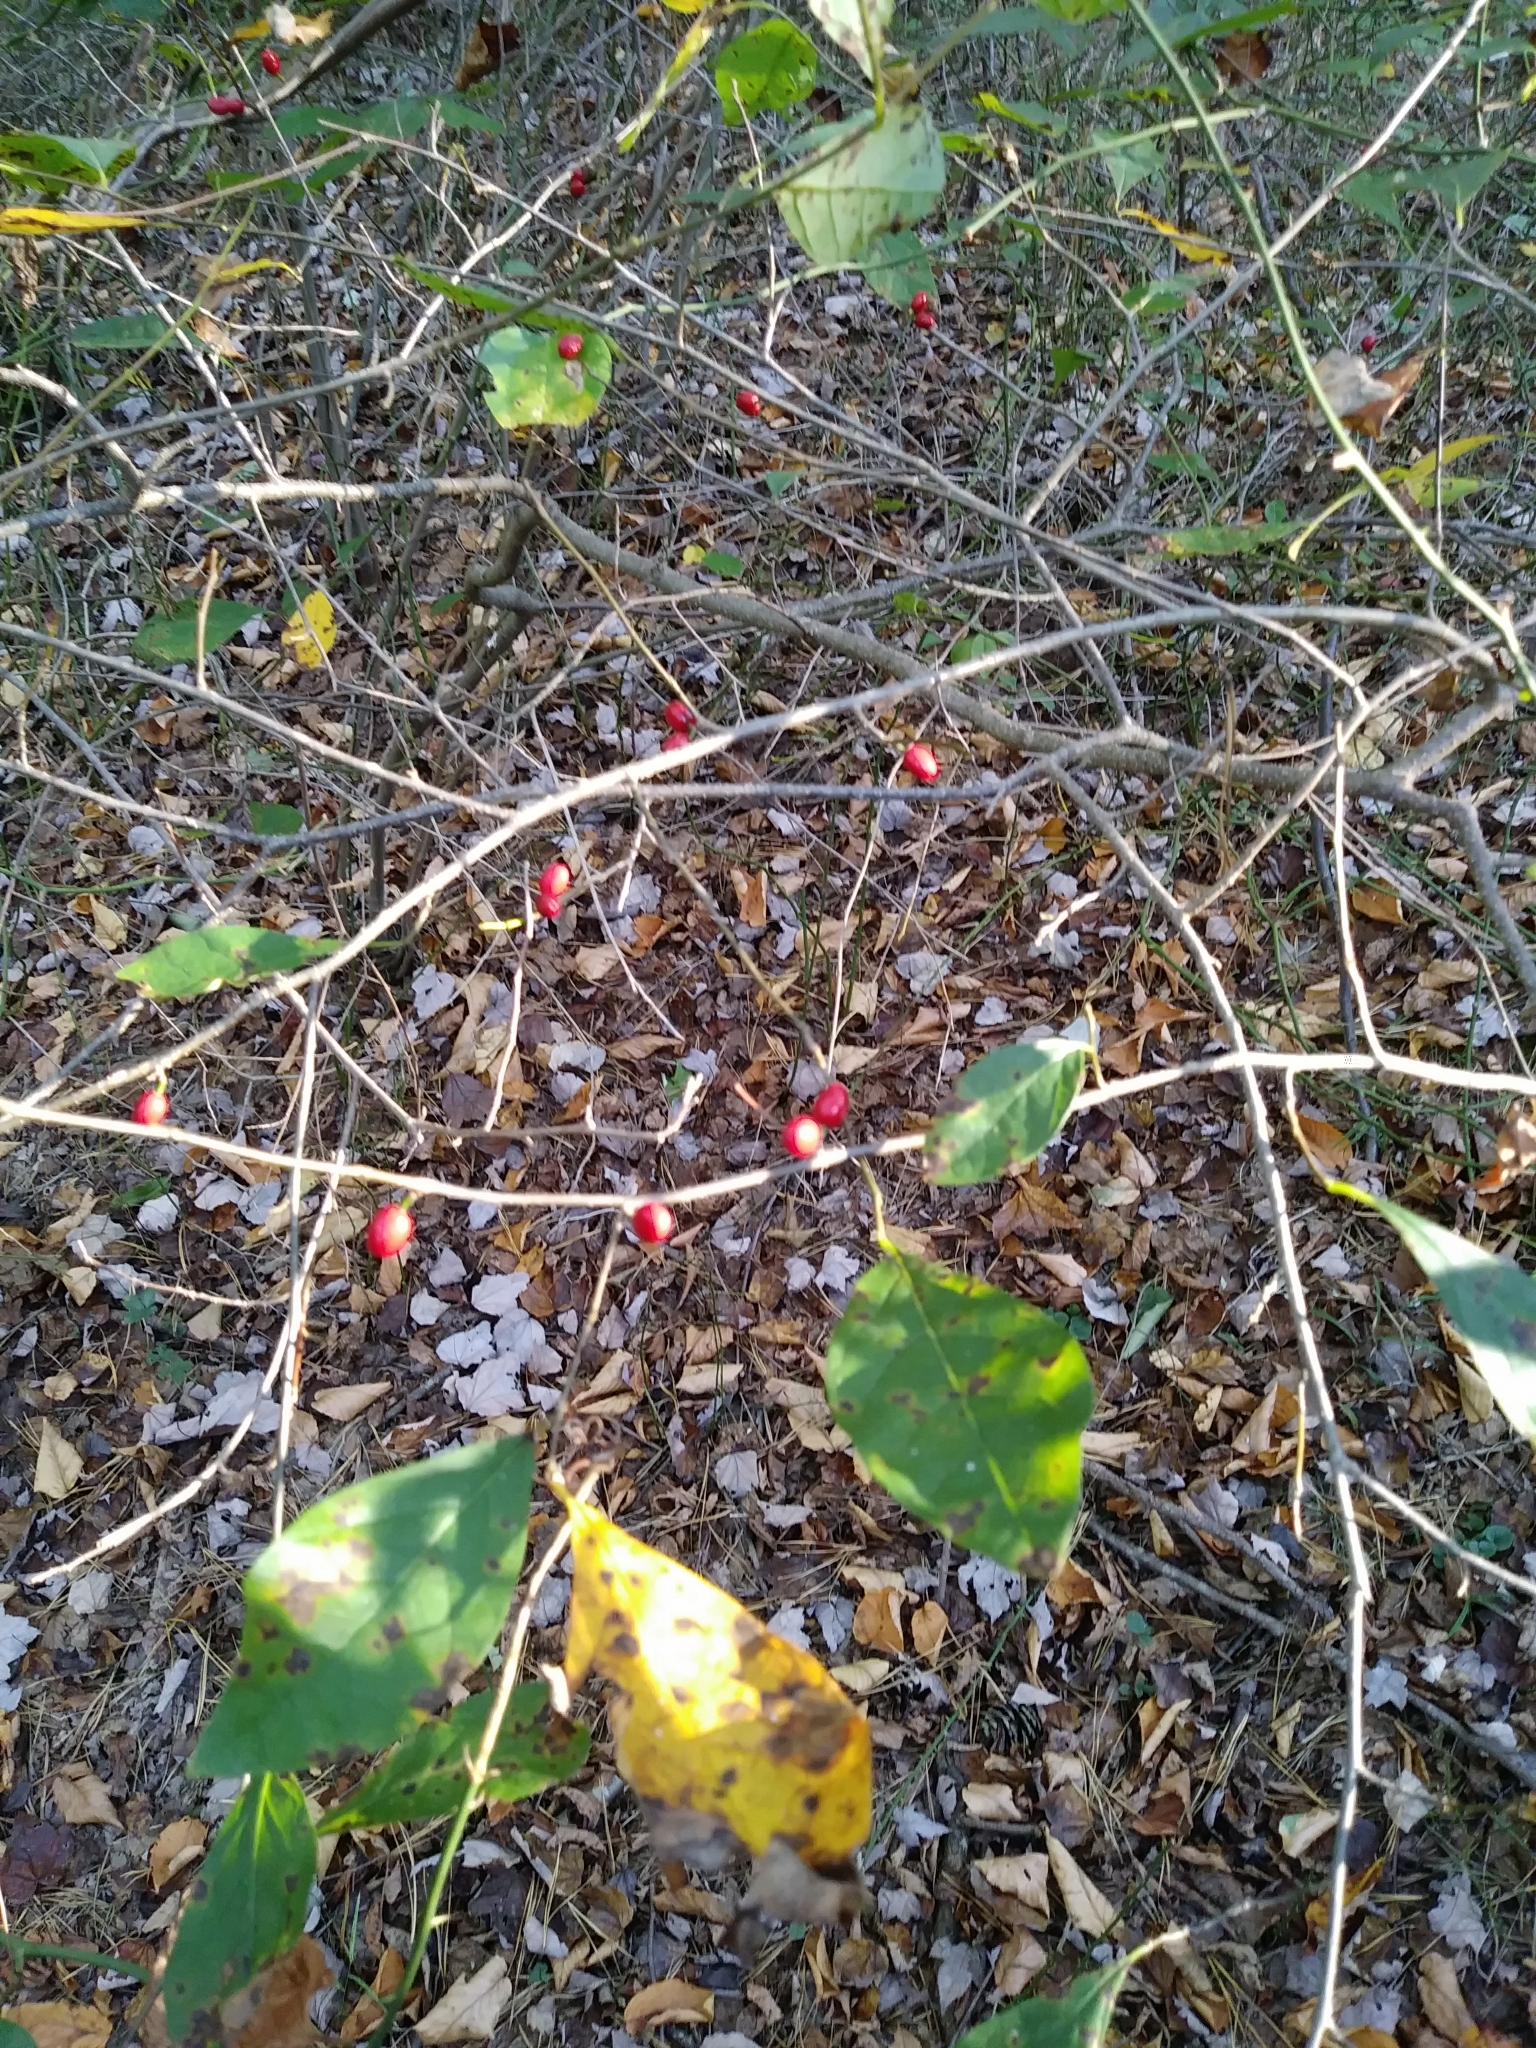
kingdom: Plantae
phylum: Tracheophyta
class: Magnoliopsida
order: Laurales
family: Lauraceae
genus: Lindera
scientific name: Lindera benzoin
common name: Spicebush
